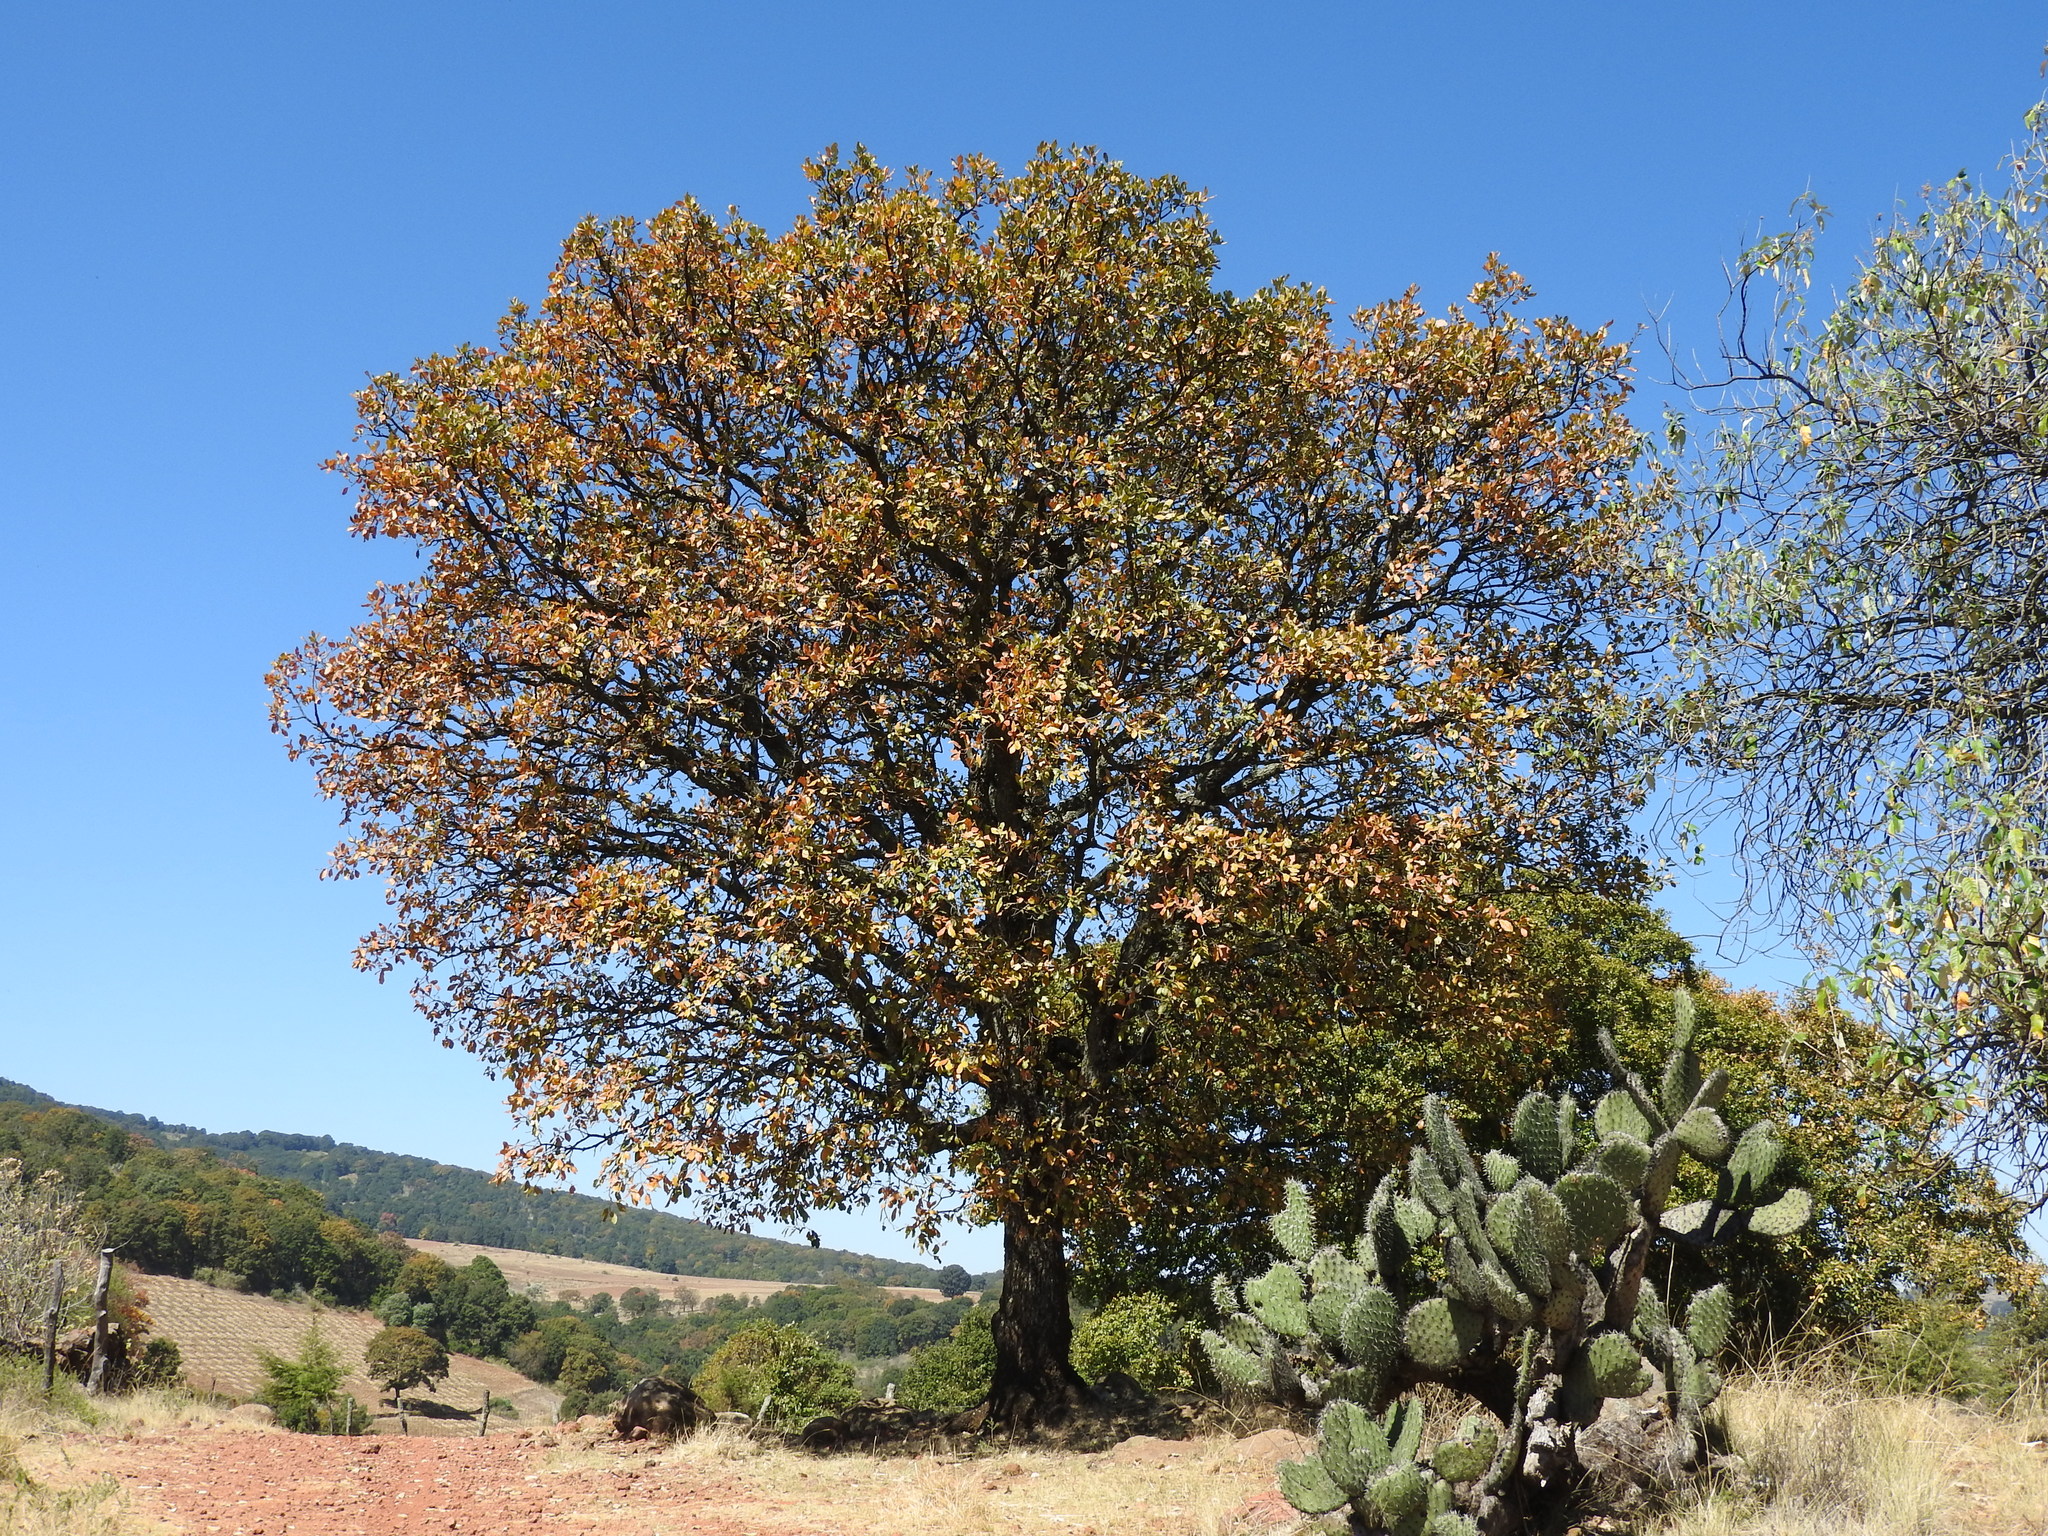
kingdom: Plantae
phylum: Tracheophyta
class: Magnoliopsida
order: Fagales
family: Fagaceae
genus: Quercus
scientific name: Quercus
